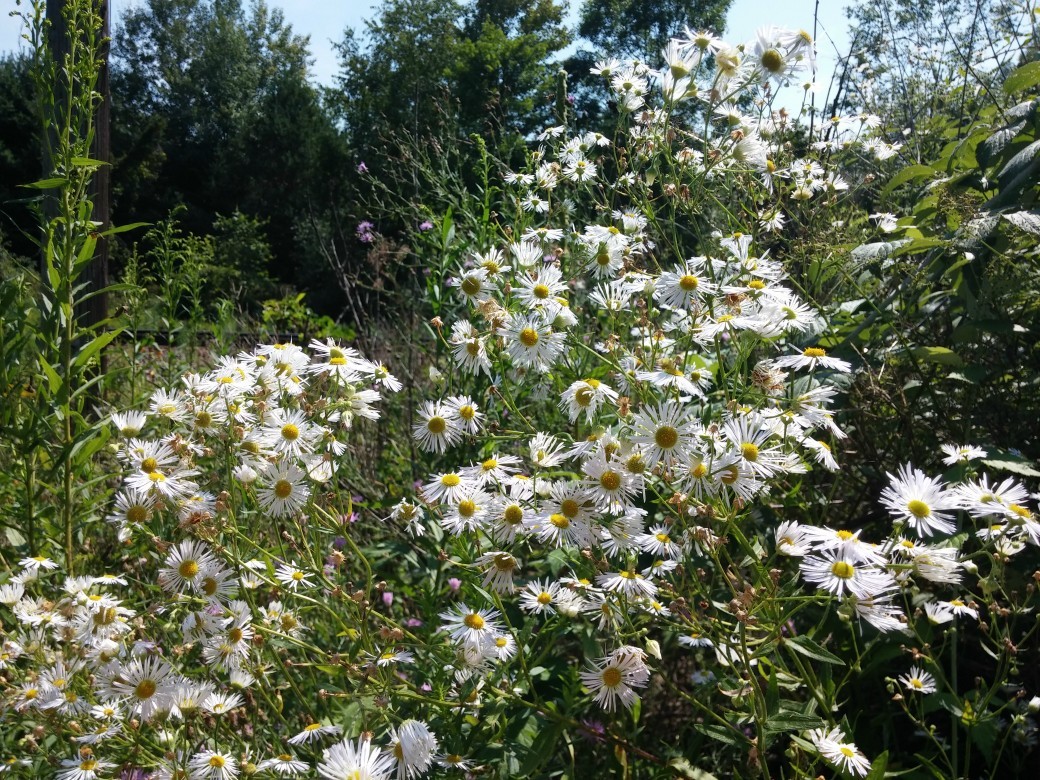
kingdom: Plantae
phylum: Tracheophyta
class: Magnoliopsida
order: Asterales
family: Asteraceae
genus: Erigeron
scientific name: Erigeron annuus
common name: Tall fleabane
